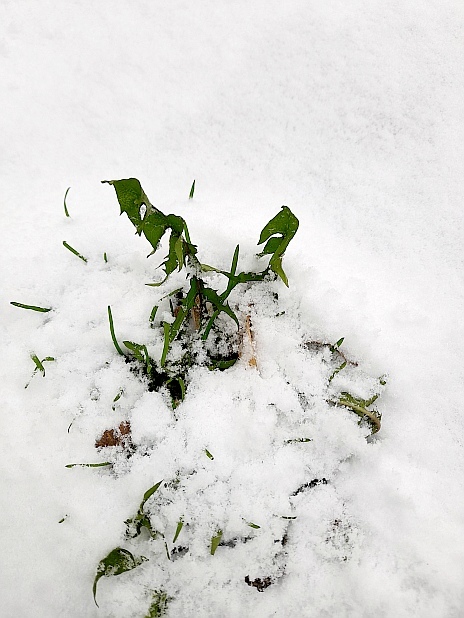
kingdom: Plantae
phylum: Tracheophyta
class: Magnoliopsida
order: Asterales
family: Asteraceae
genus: Taraxacum
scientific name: Taraxacum officinale
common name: Common dandelion
